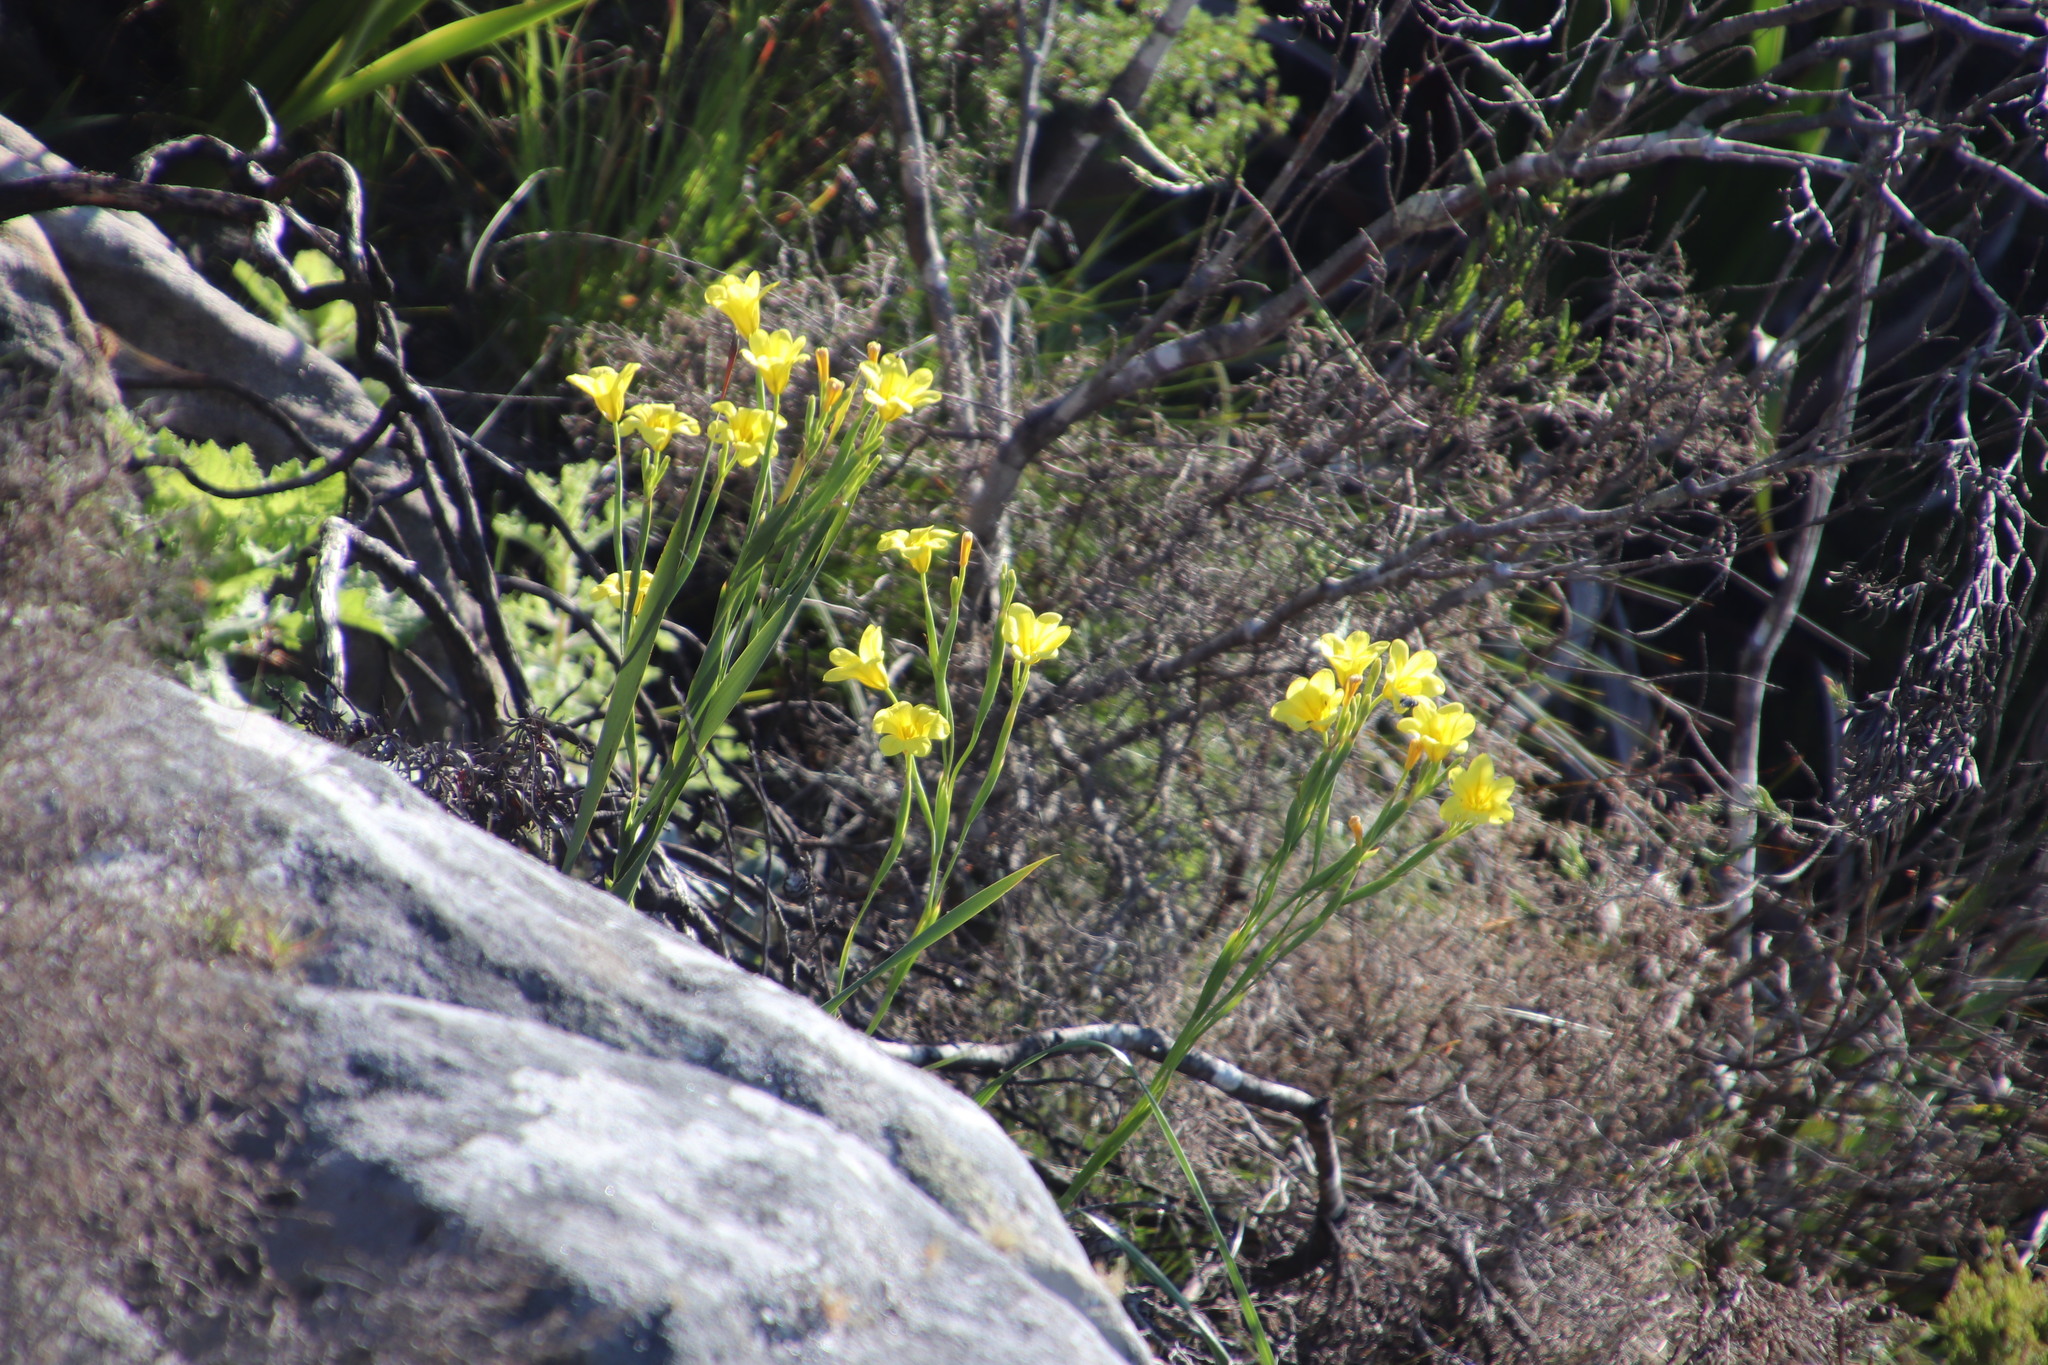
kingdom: Plantae
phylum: Tracheophyta
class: Liliopsida
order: Asparagales
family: Iridaceae
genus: Moraea
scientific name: Moraea ochroleuca
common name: Red tulp
